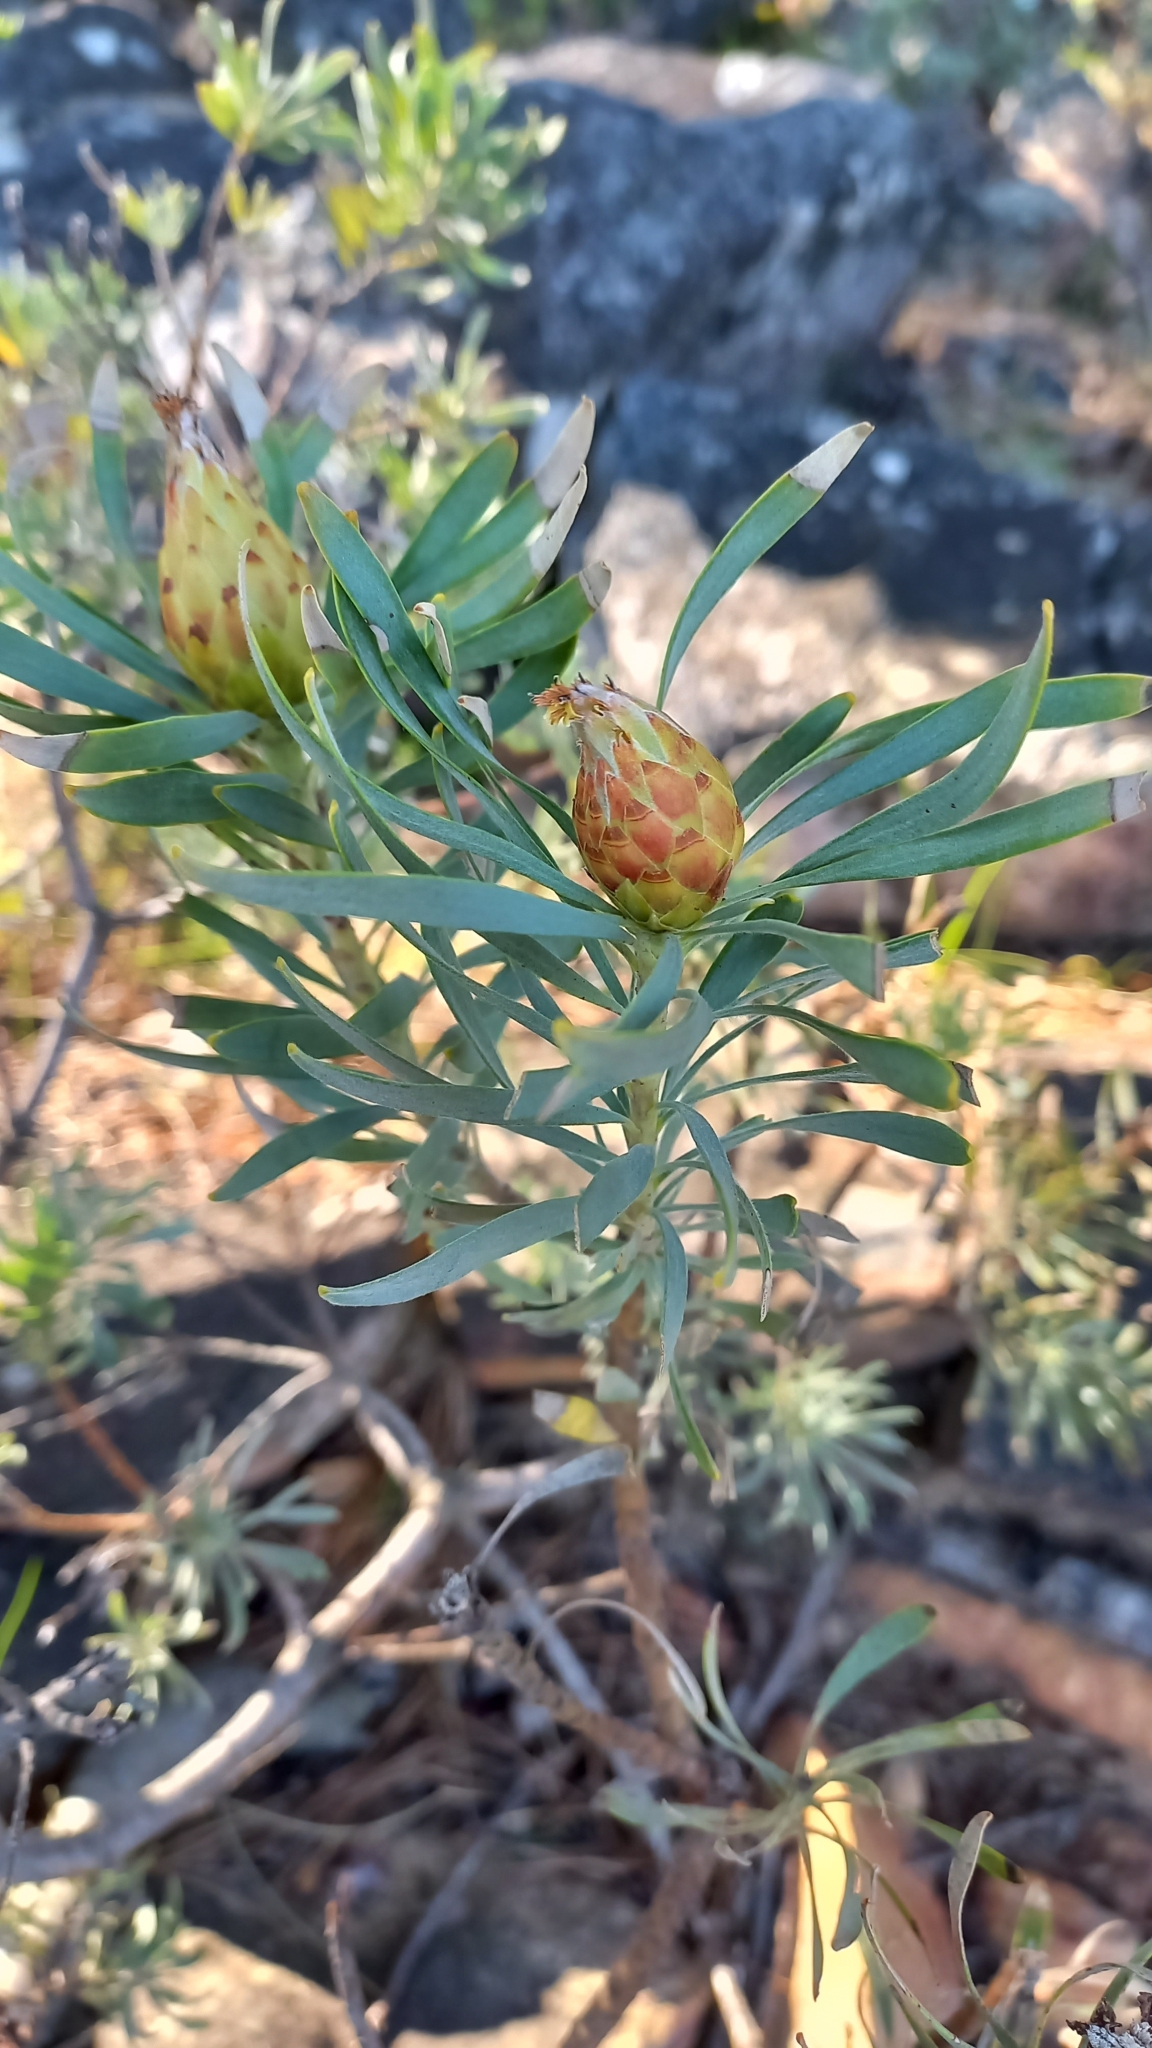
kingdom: Plantae
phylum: Tracheophyta
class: Magnoliopsida
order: Proteales
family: Proteaceae
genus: Leucadendron
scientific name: Leucadendron rubrum
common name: Spinning top
